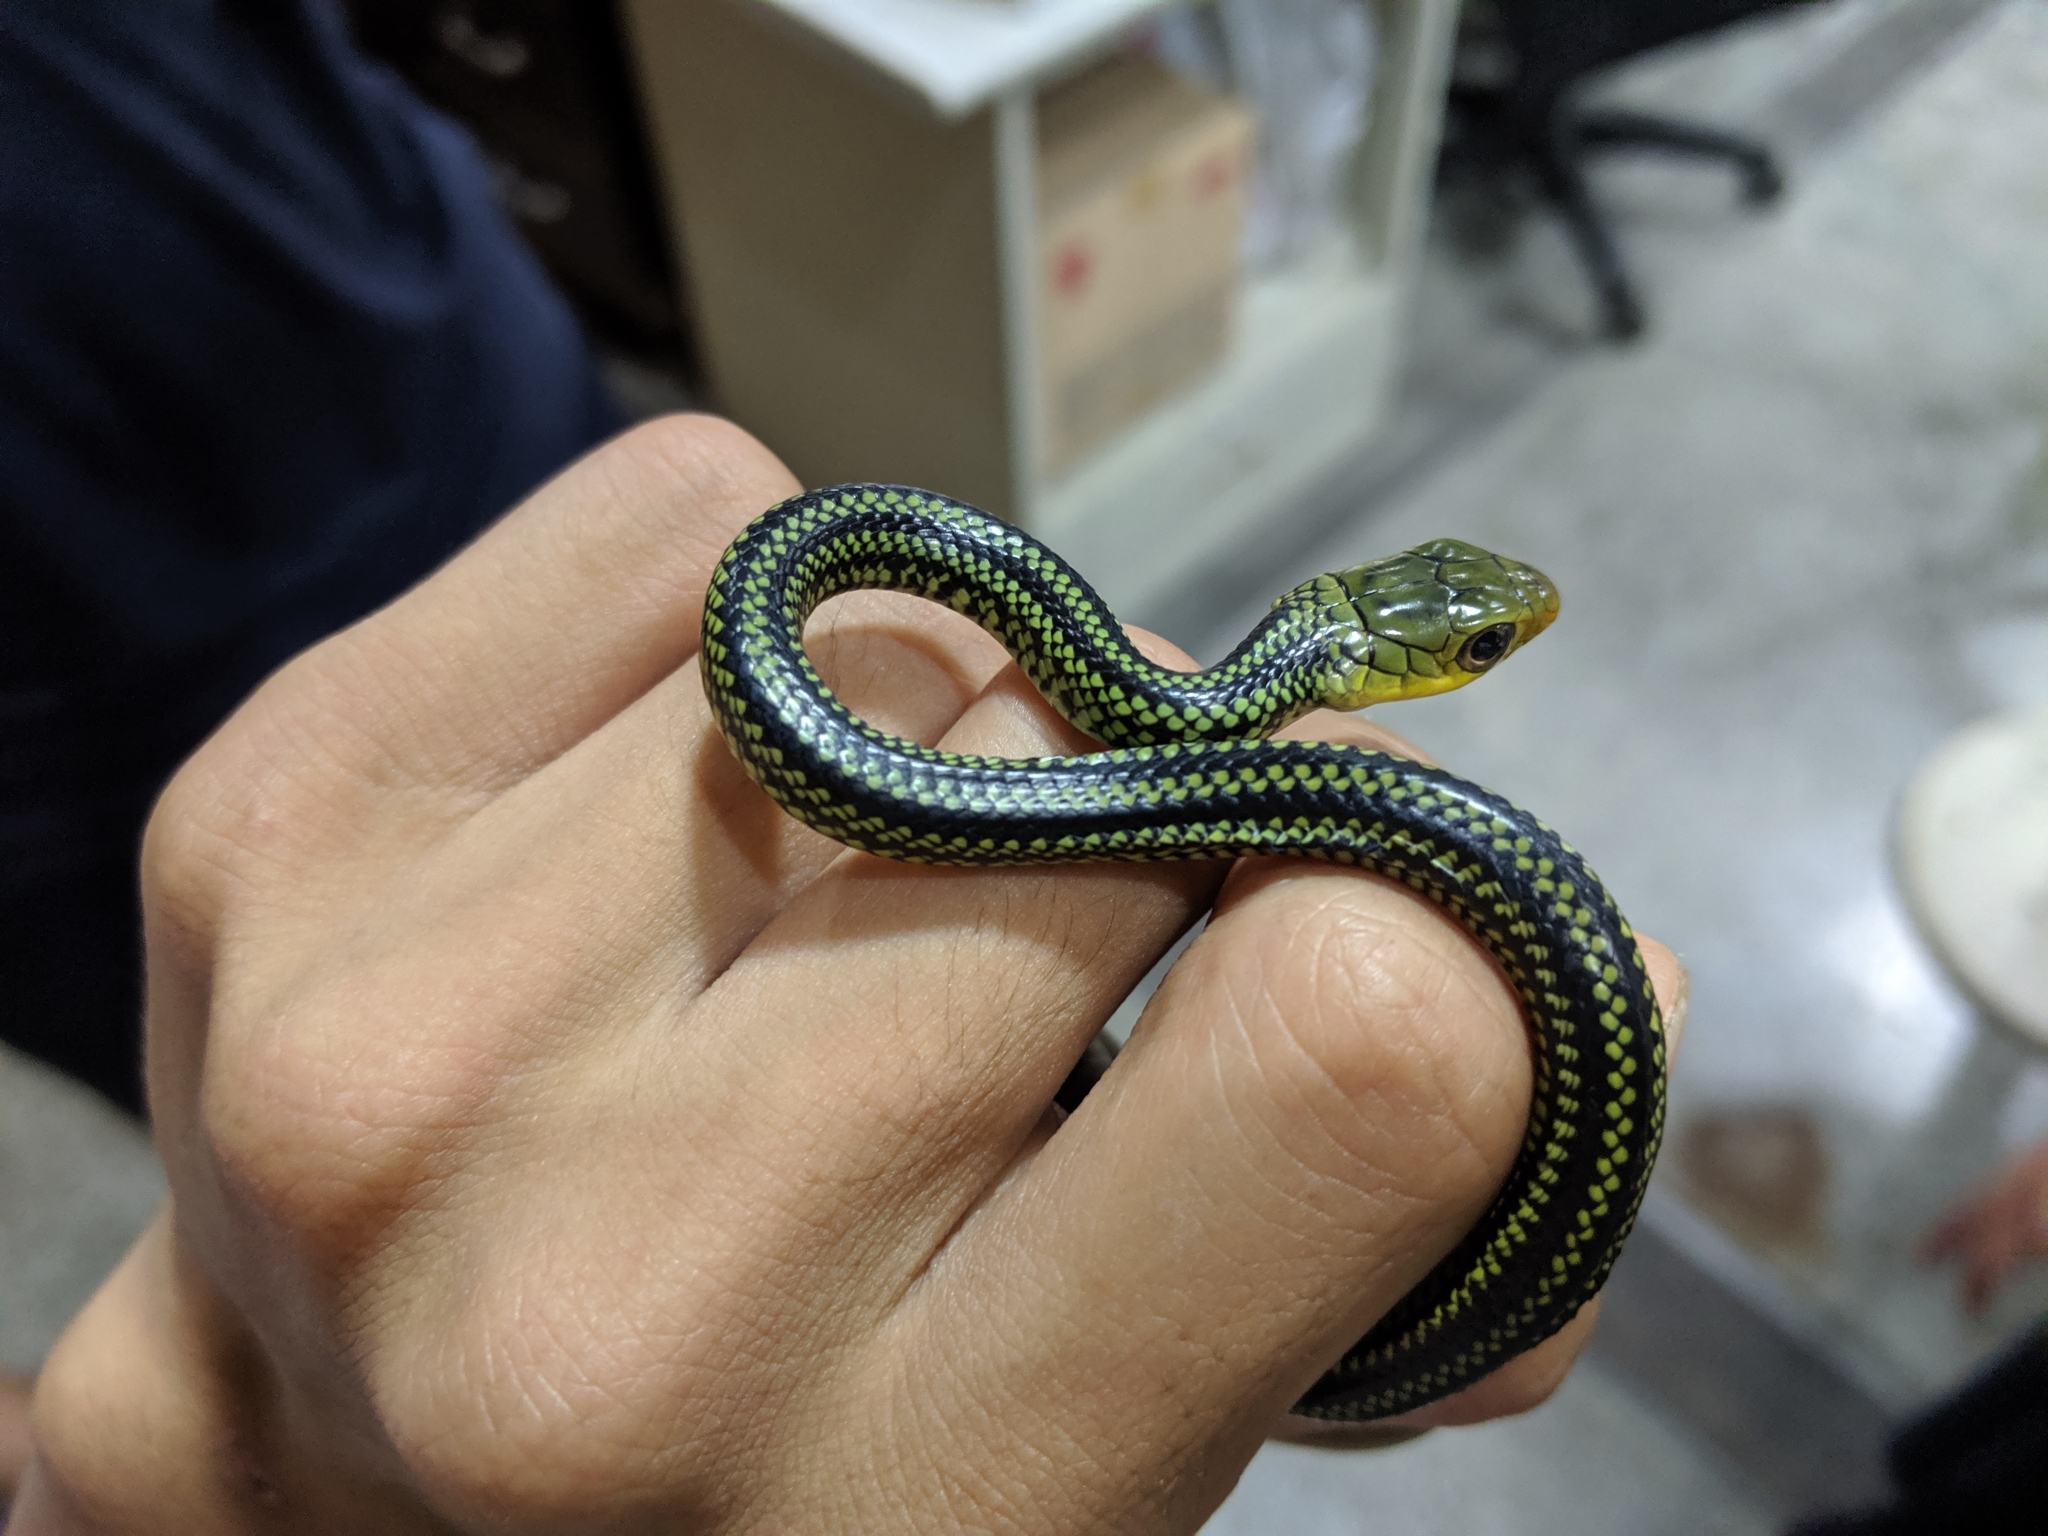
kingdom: Animalia
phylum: Chordata
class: Squamata
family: Colubridae
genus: Ptyas
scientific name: Ptyas dhumnades
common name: Black-striped rat snake
